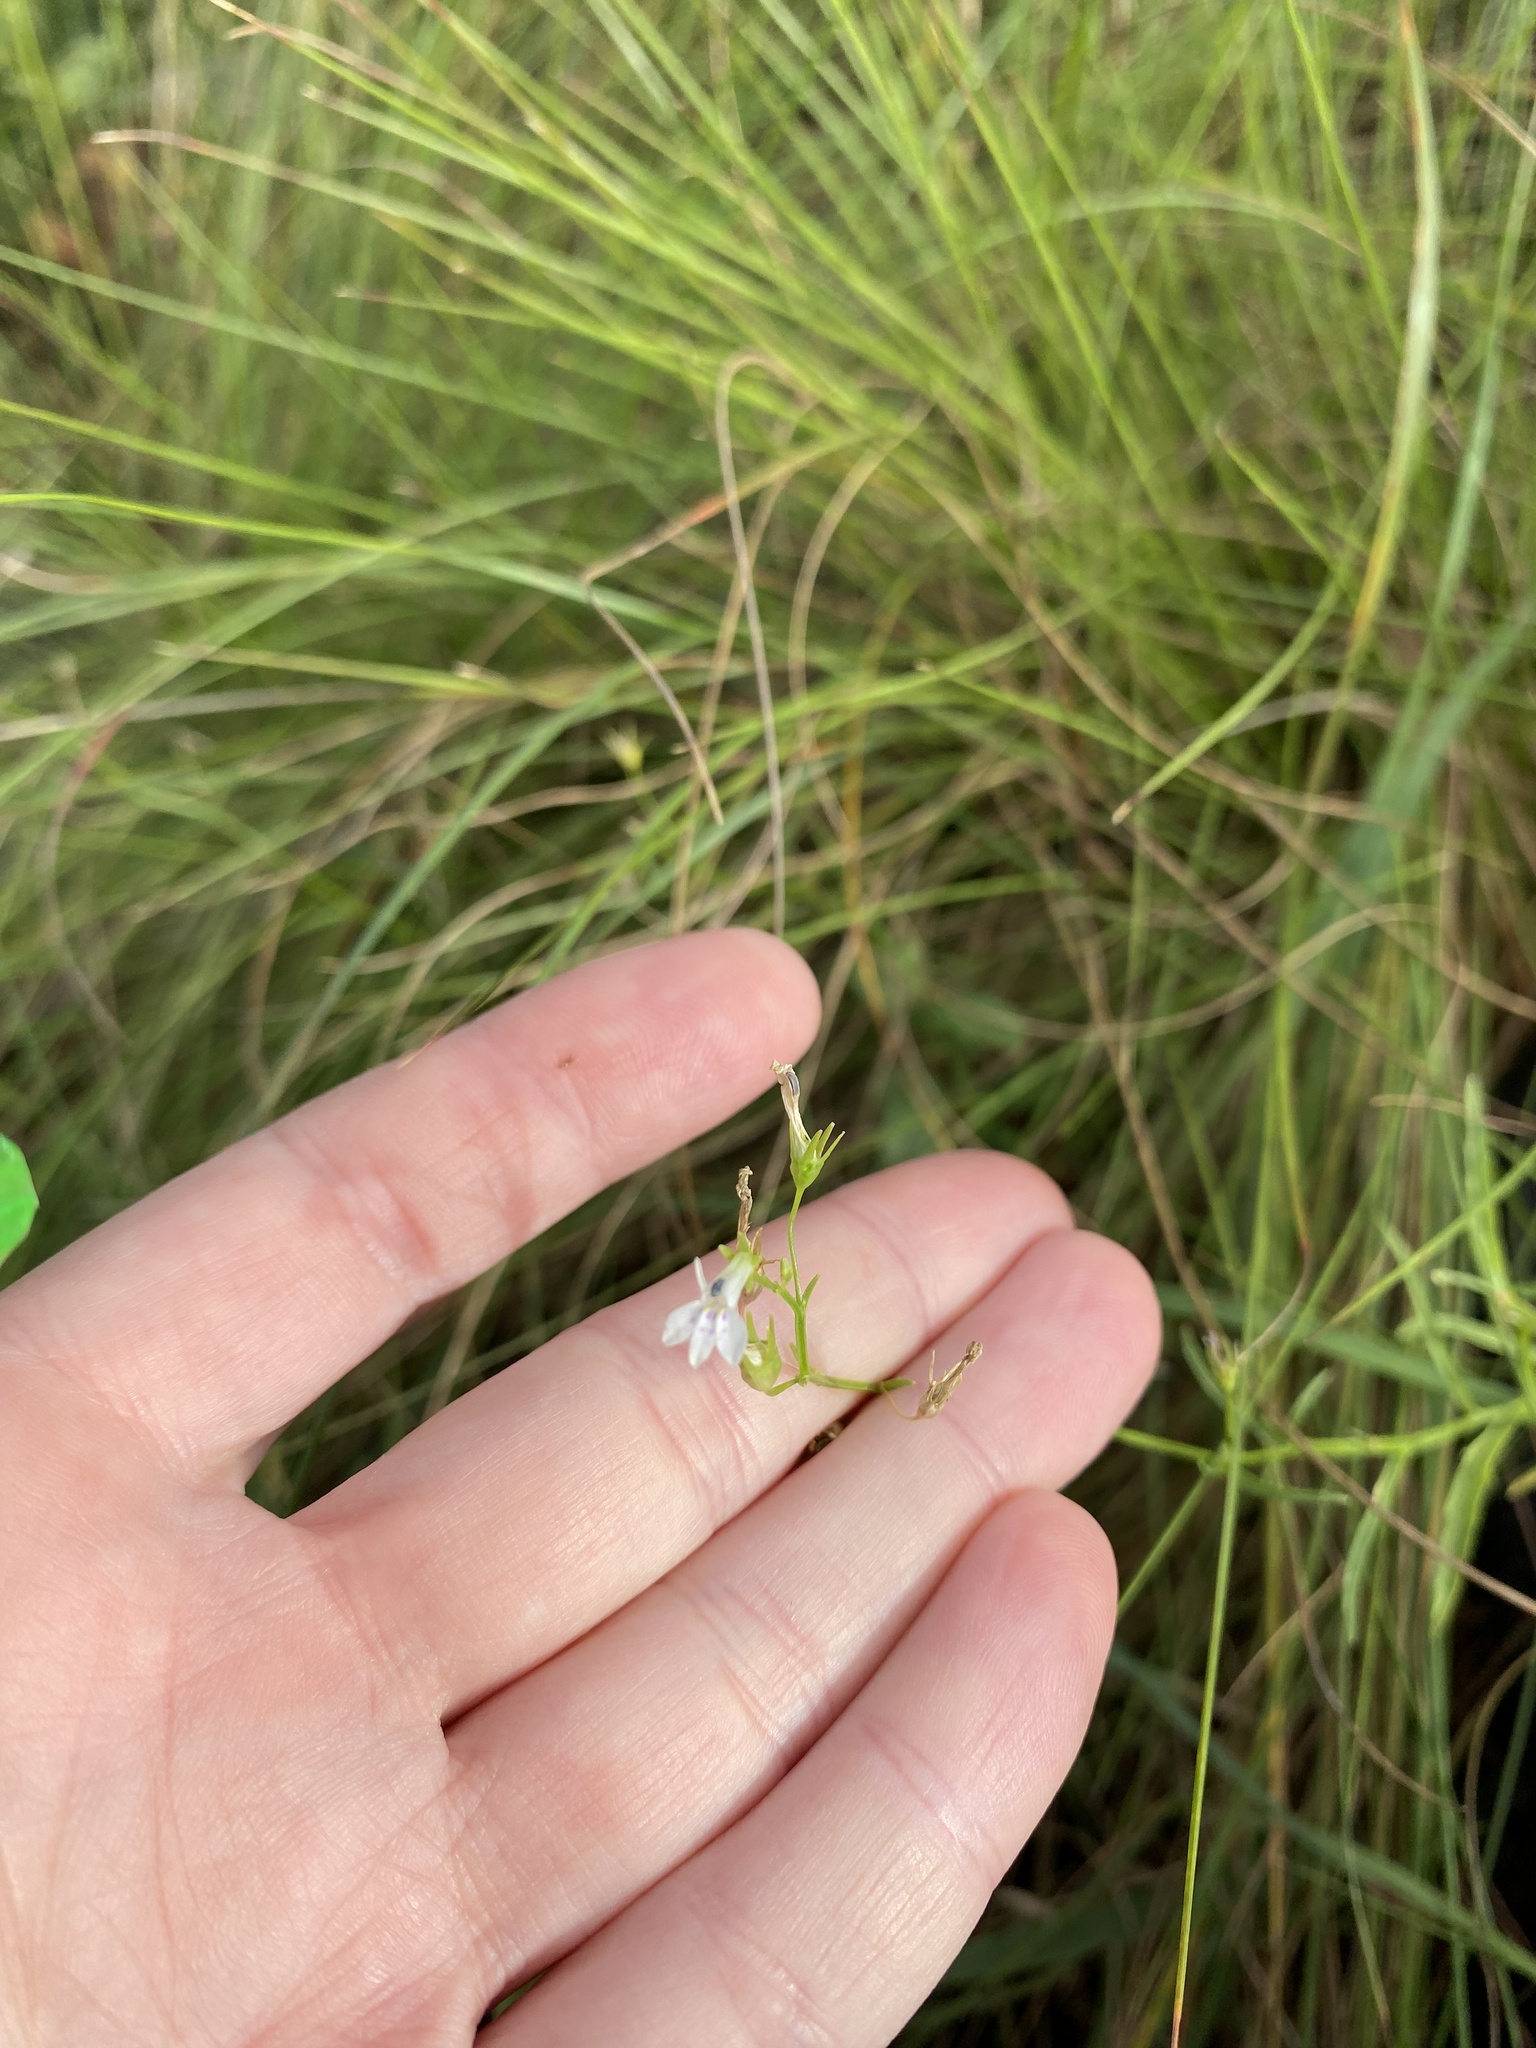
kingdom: Plantae
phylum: Tracheophyta
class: Magnoliopsida
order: Asterales
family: Campanulaceae
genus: Lobelia
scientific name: Lobelia flaccida
